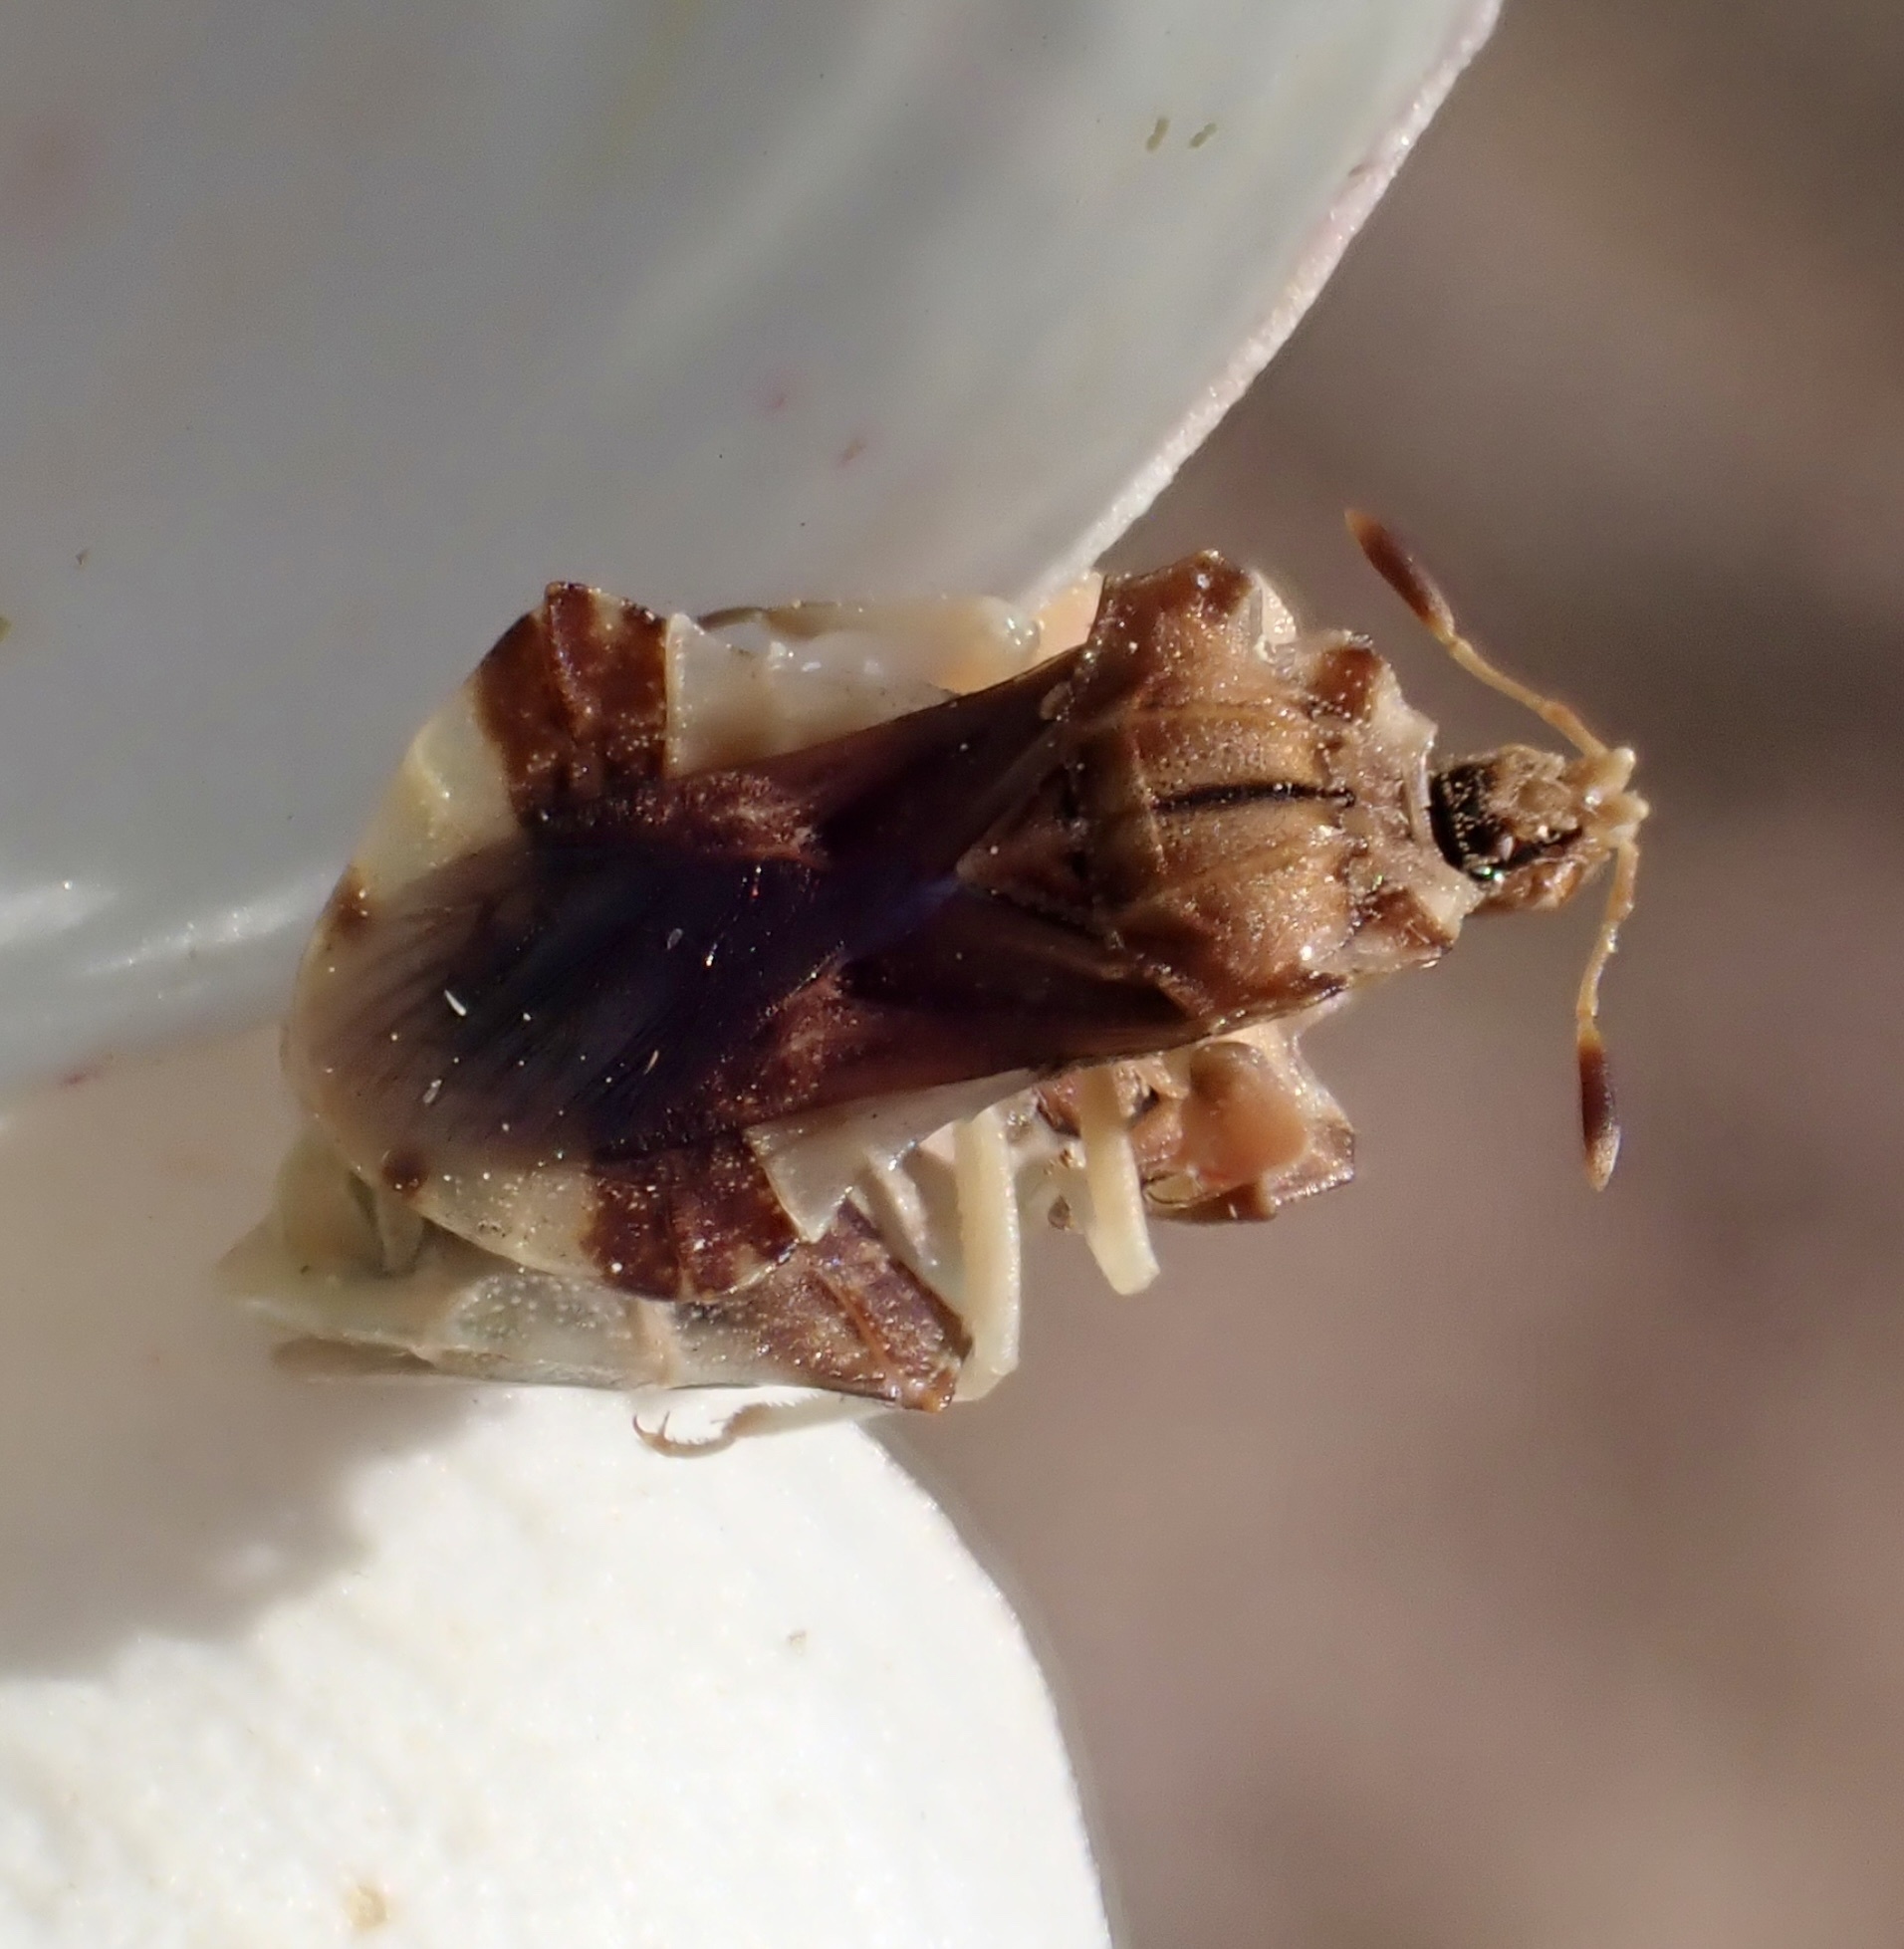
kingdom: Animalia
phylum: Arthropoda
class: Insecta
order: Hemiptera
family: Reduviidae
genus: Phymata
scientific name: Phymata fasciata
